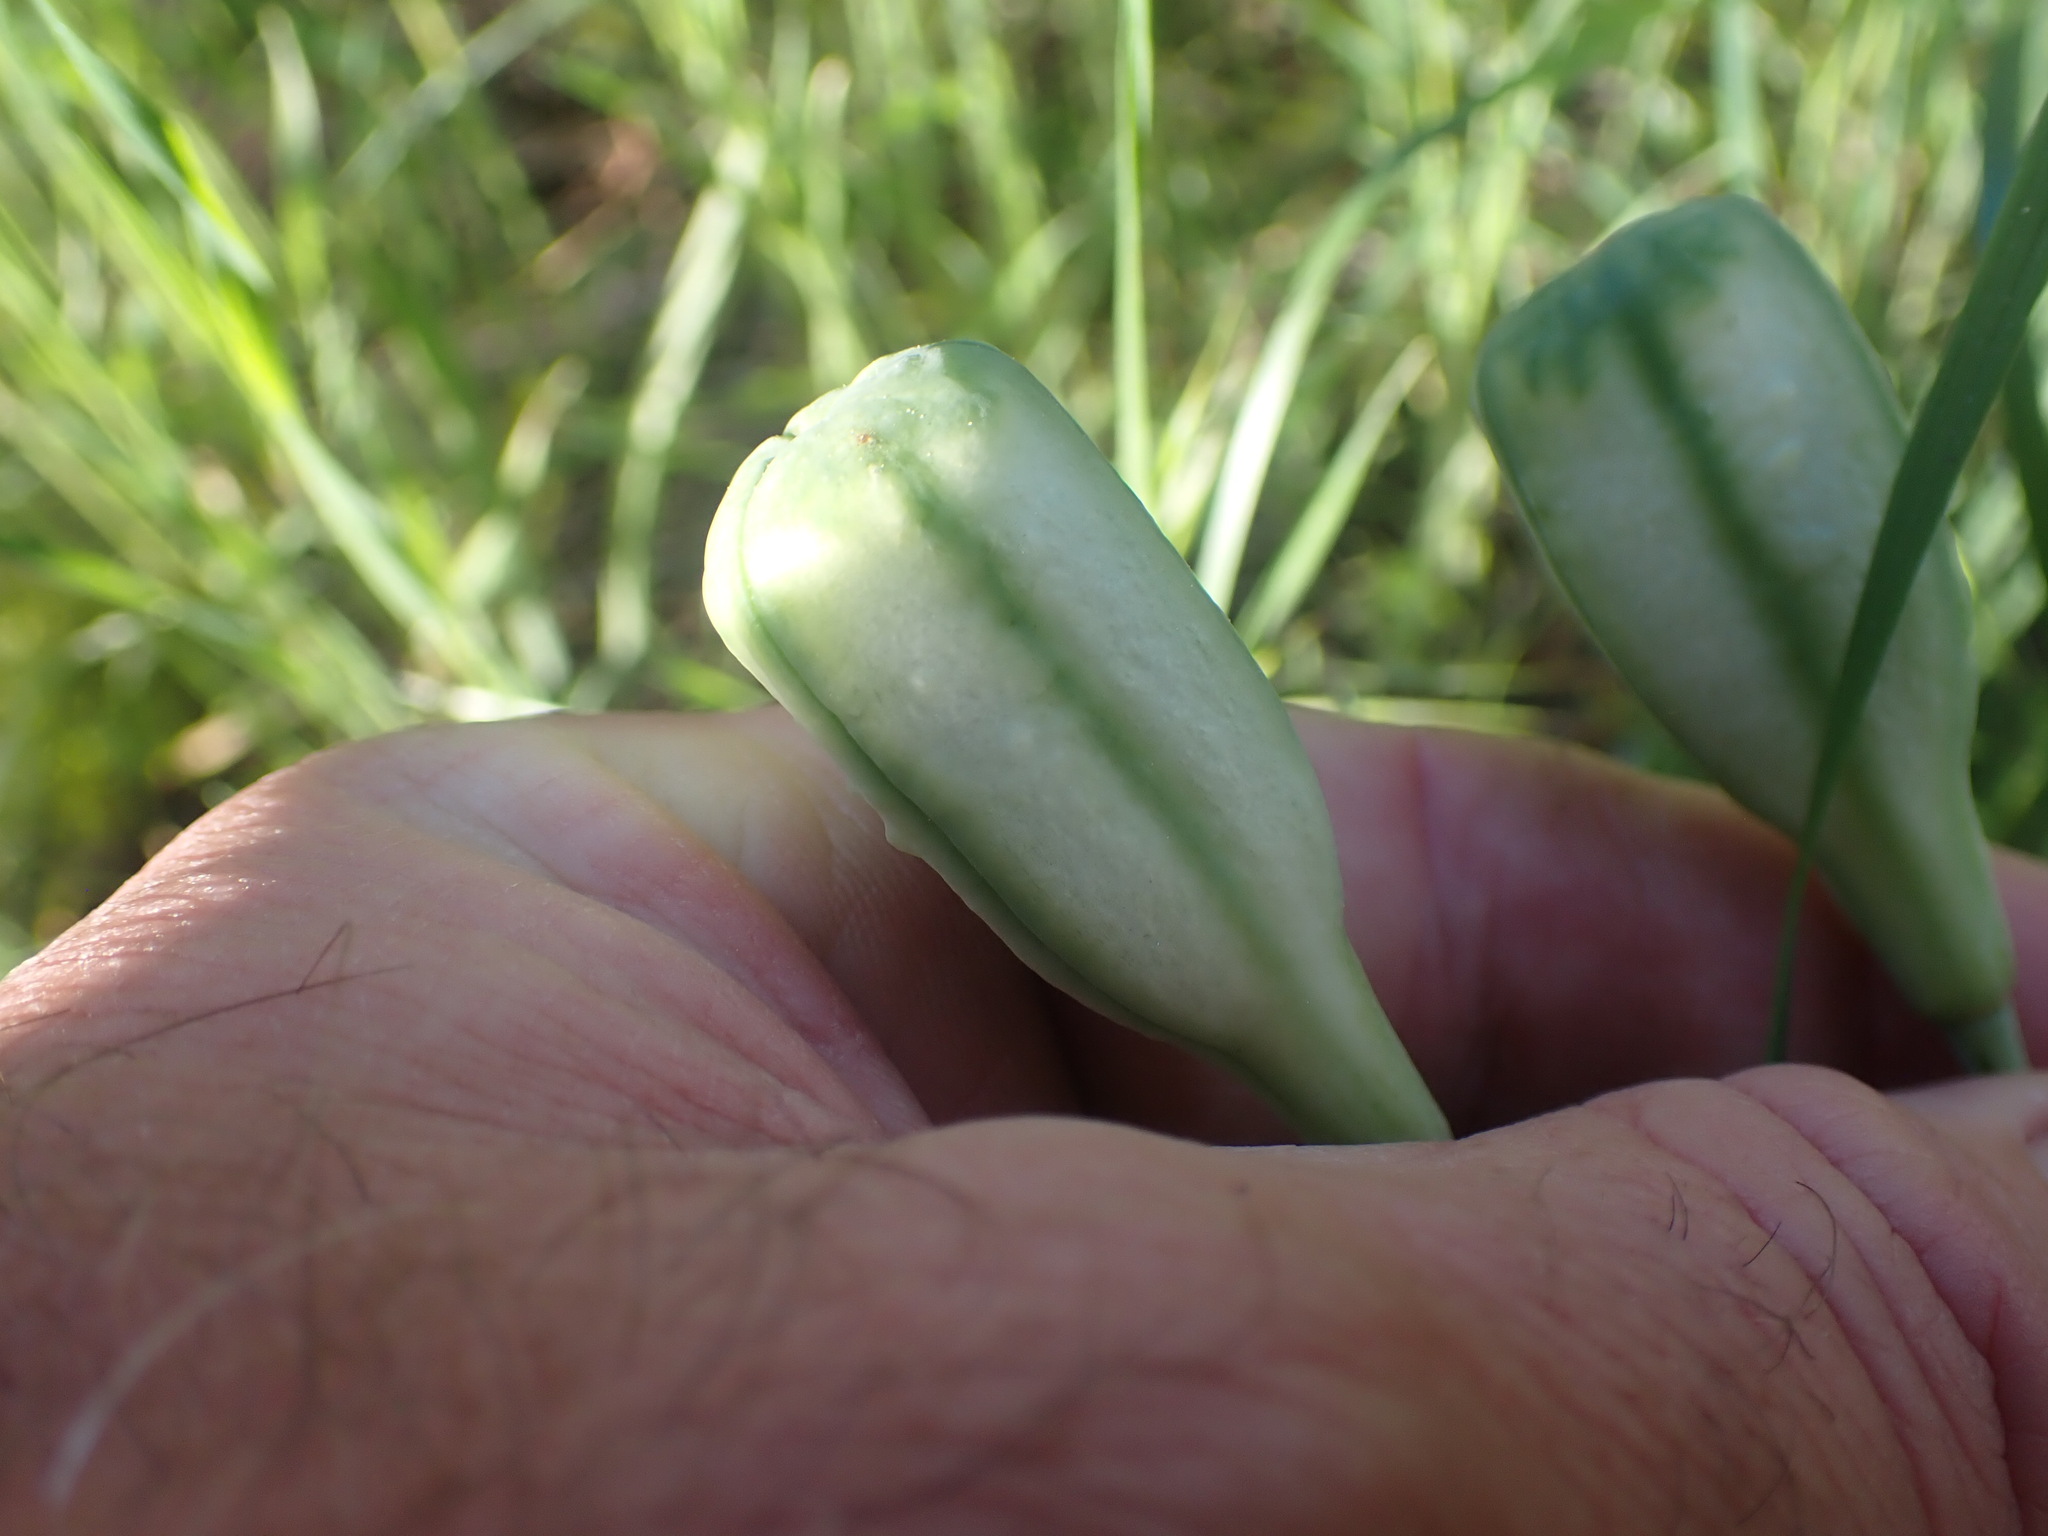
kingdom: Plantae
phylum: Tracheophyta
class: Liliopsida
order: Liliales
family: Liliaceae
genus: Fritillaria
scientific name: Fritillaria pudica
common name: Yellow fritillary
